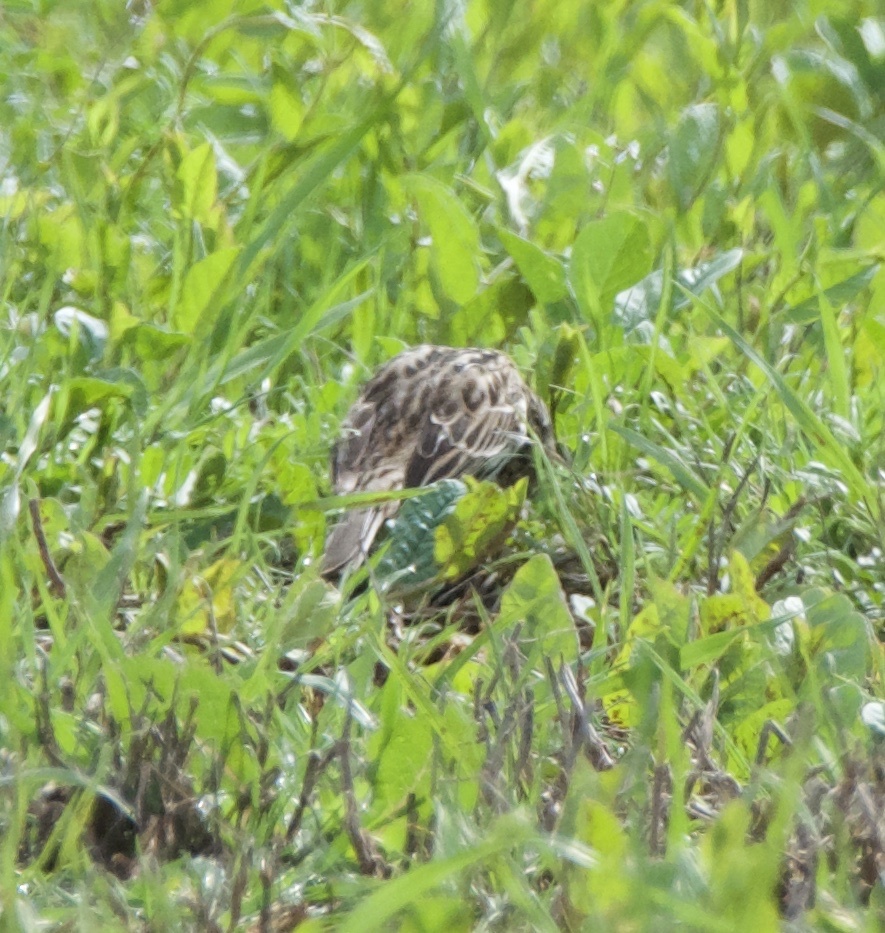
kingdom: Animalia
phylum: Chordata
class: Aves
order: Passeriformes
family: Passerellidae
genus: Passerculus
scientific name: Passerculus sandwichensis
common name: Savannah sparrow
